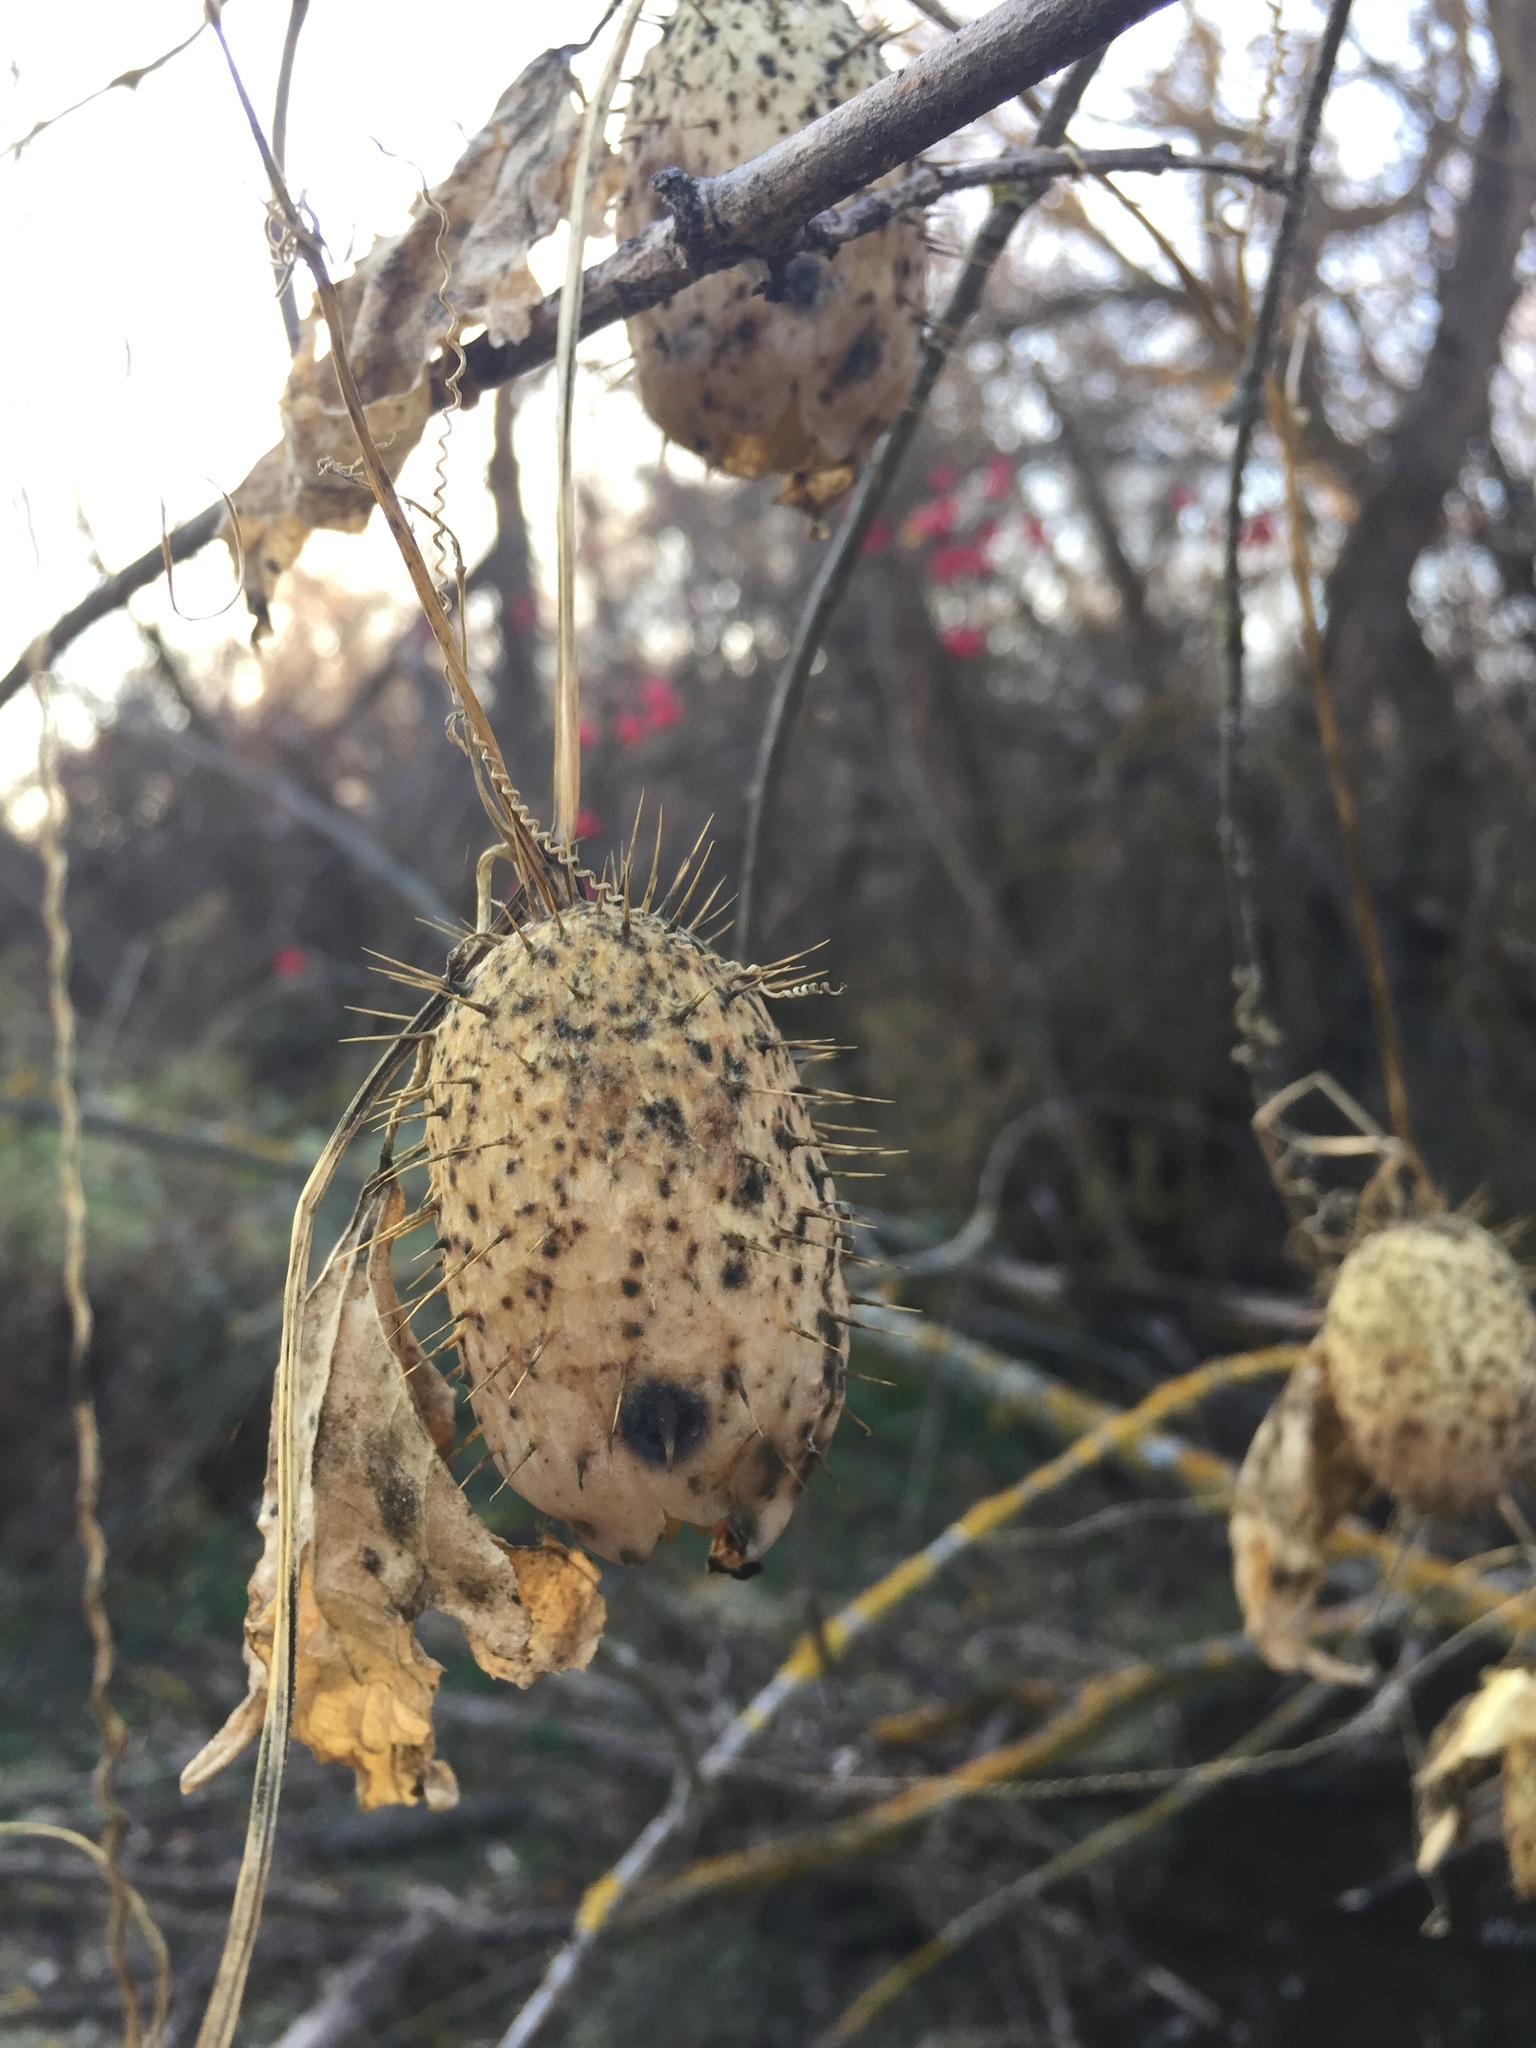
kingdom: Plantae
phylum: Tracheophyta
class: Magnoliopsida
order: Cucurbitales
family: Cucurbitaceae
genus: Echinocystis
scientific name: Echinocystis lobata
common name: Wild cucumber
